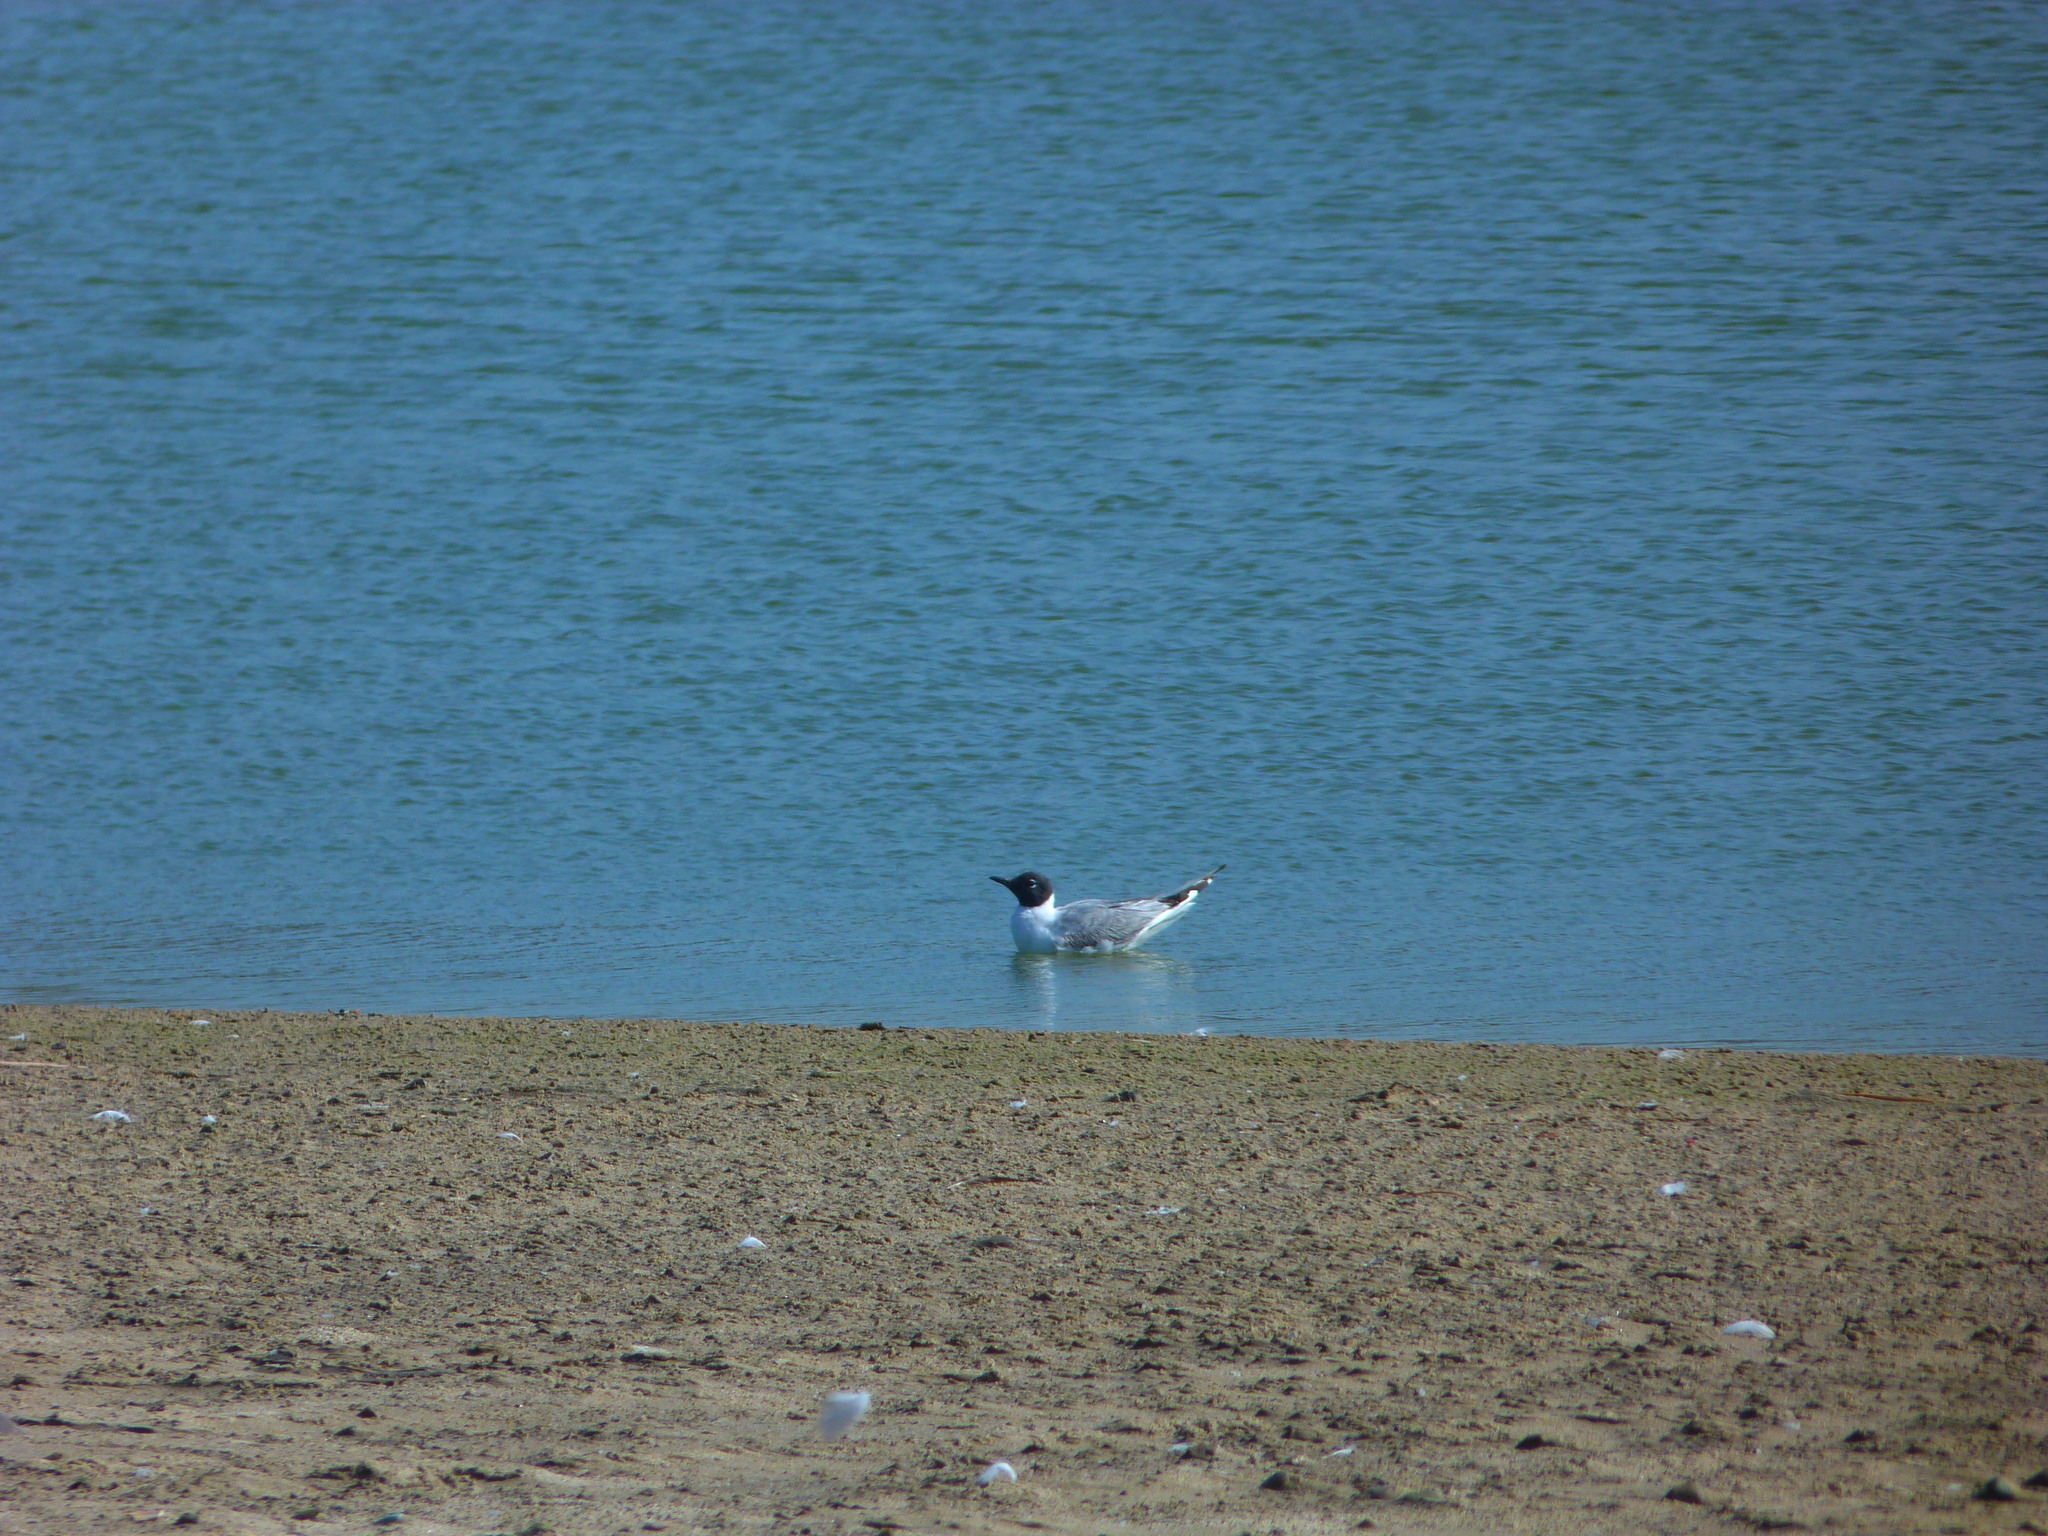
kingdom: Animalia
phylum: Chordata
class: Aves
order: Charadriiformes
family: Laridae
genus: Chroicocephalus
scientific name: Chroicocephalus philadelphia
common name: Bonaparte's gull
